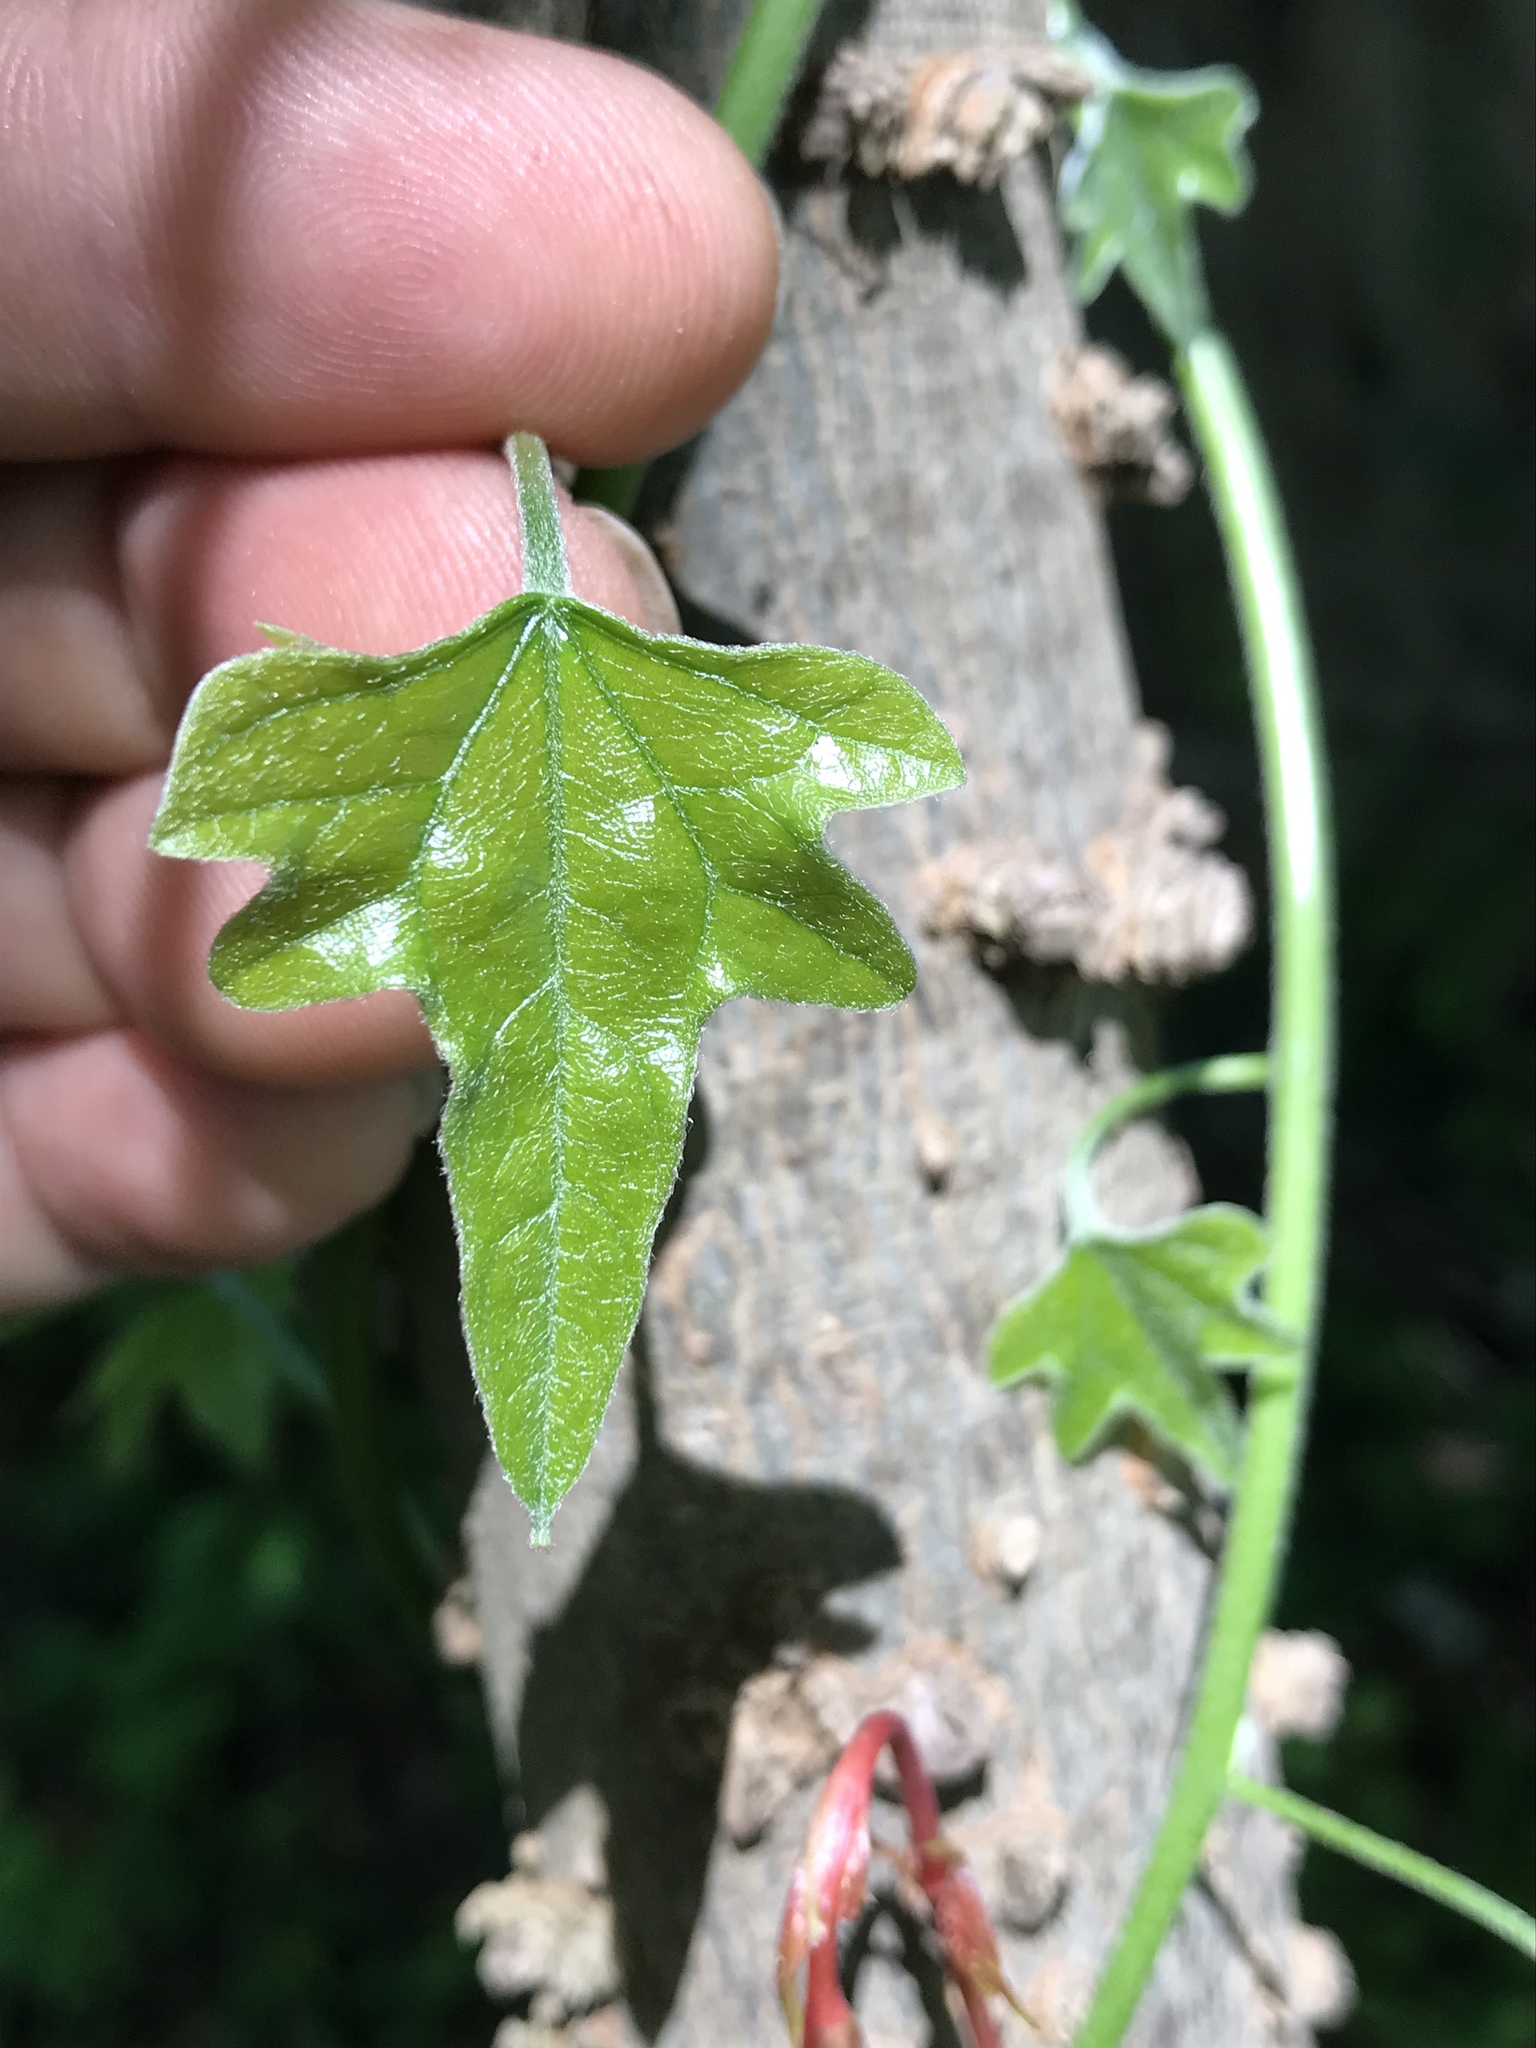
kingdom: Plantae
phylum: Tracheophyta
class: Magnoliopsida
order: Ranunculales
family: Menispermaceae
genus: Cocculus
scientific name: Cocculus carolinus
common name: Carolina moonseed
